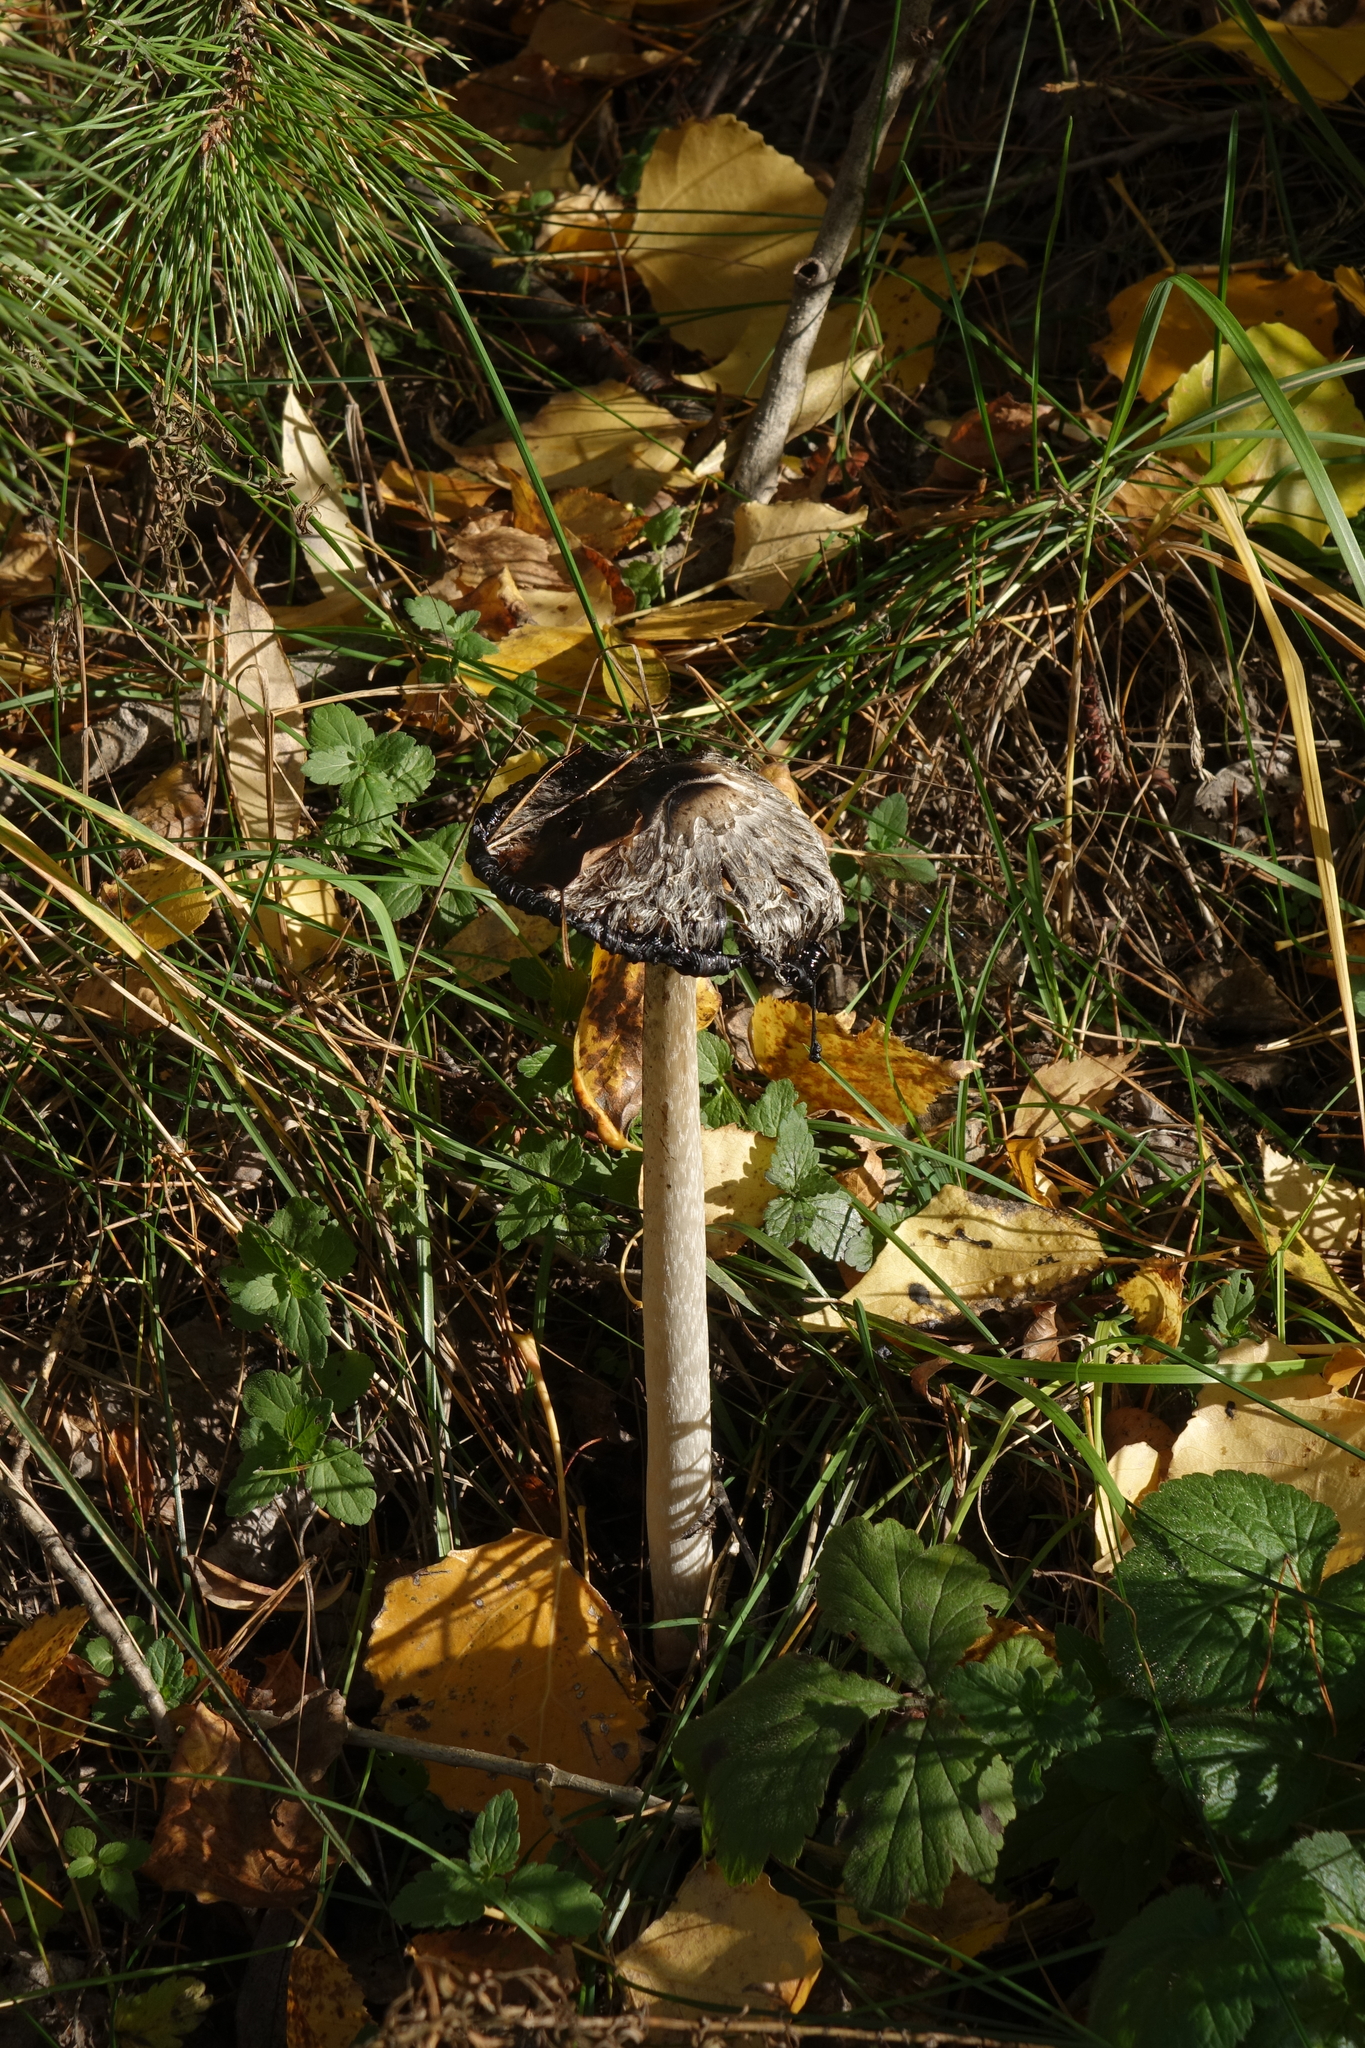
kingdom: Fungi
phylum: Basidiomycota
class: Agaricomycetes
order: Agaricales
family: Agaricaceae
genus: Coprinus
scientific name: Coprinus comatus
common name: Lawyer's wig
